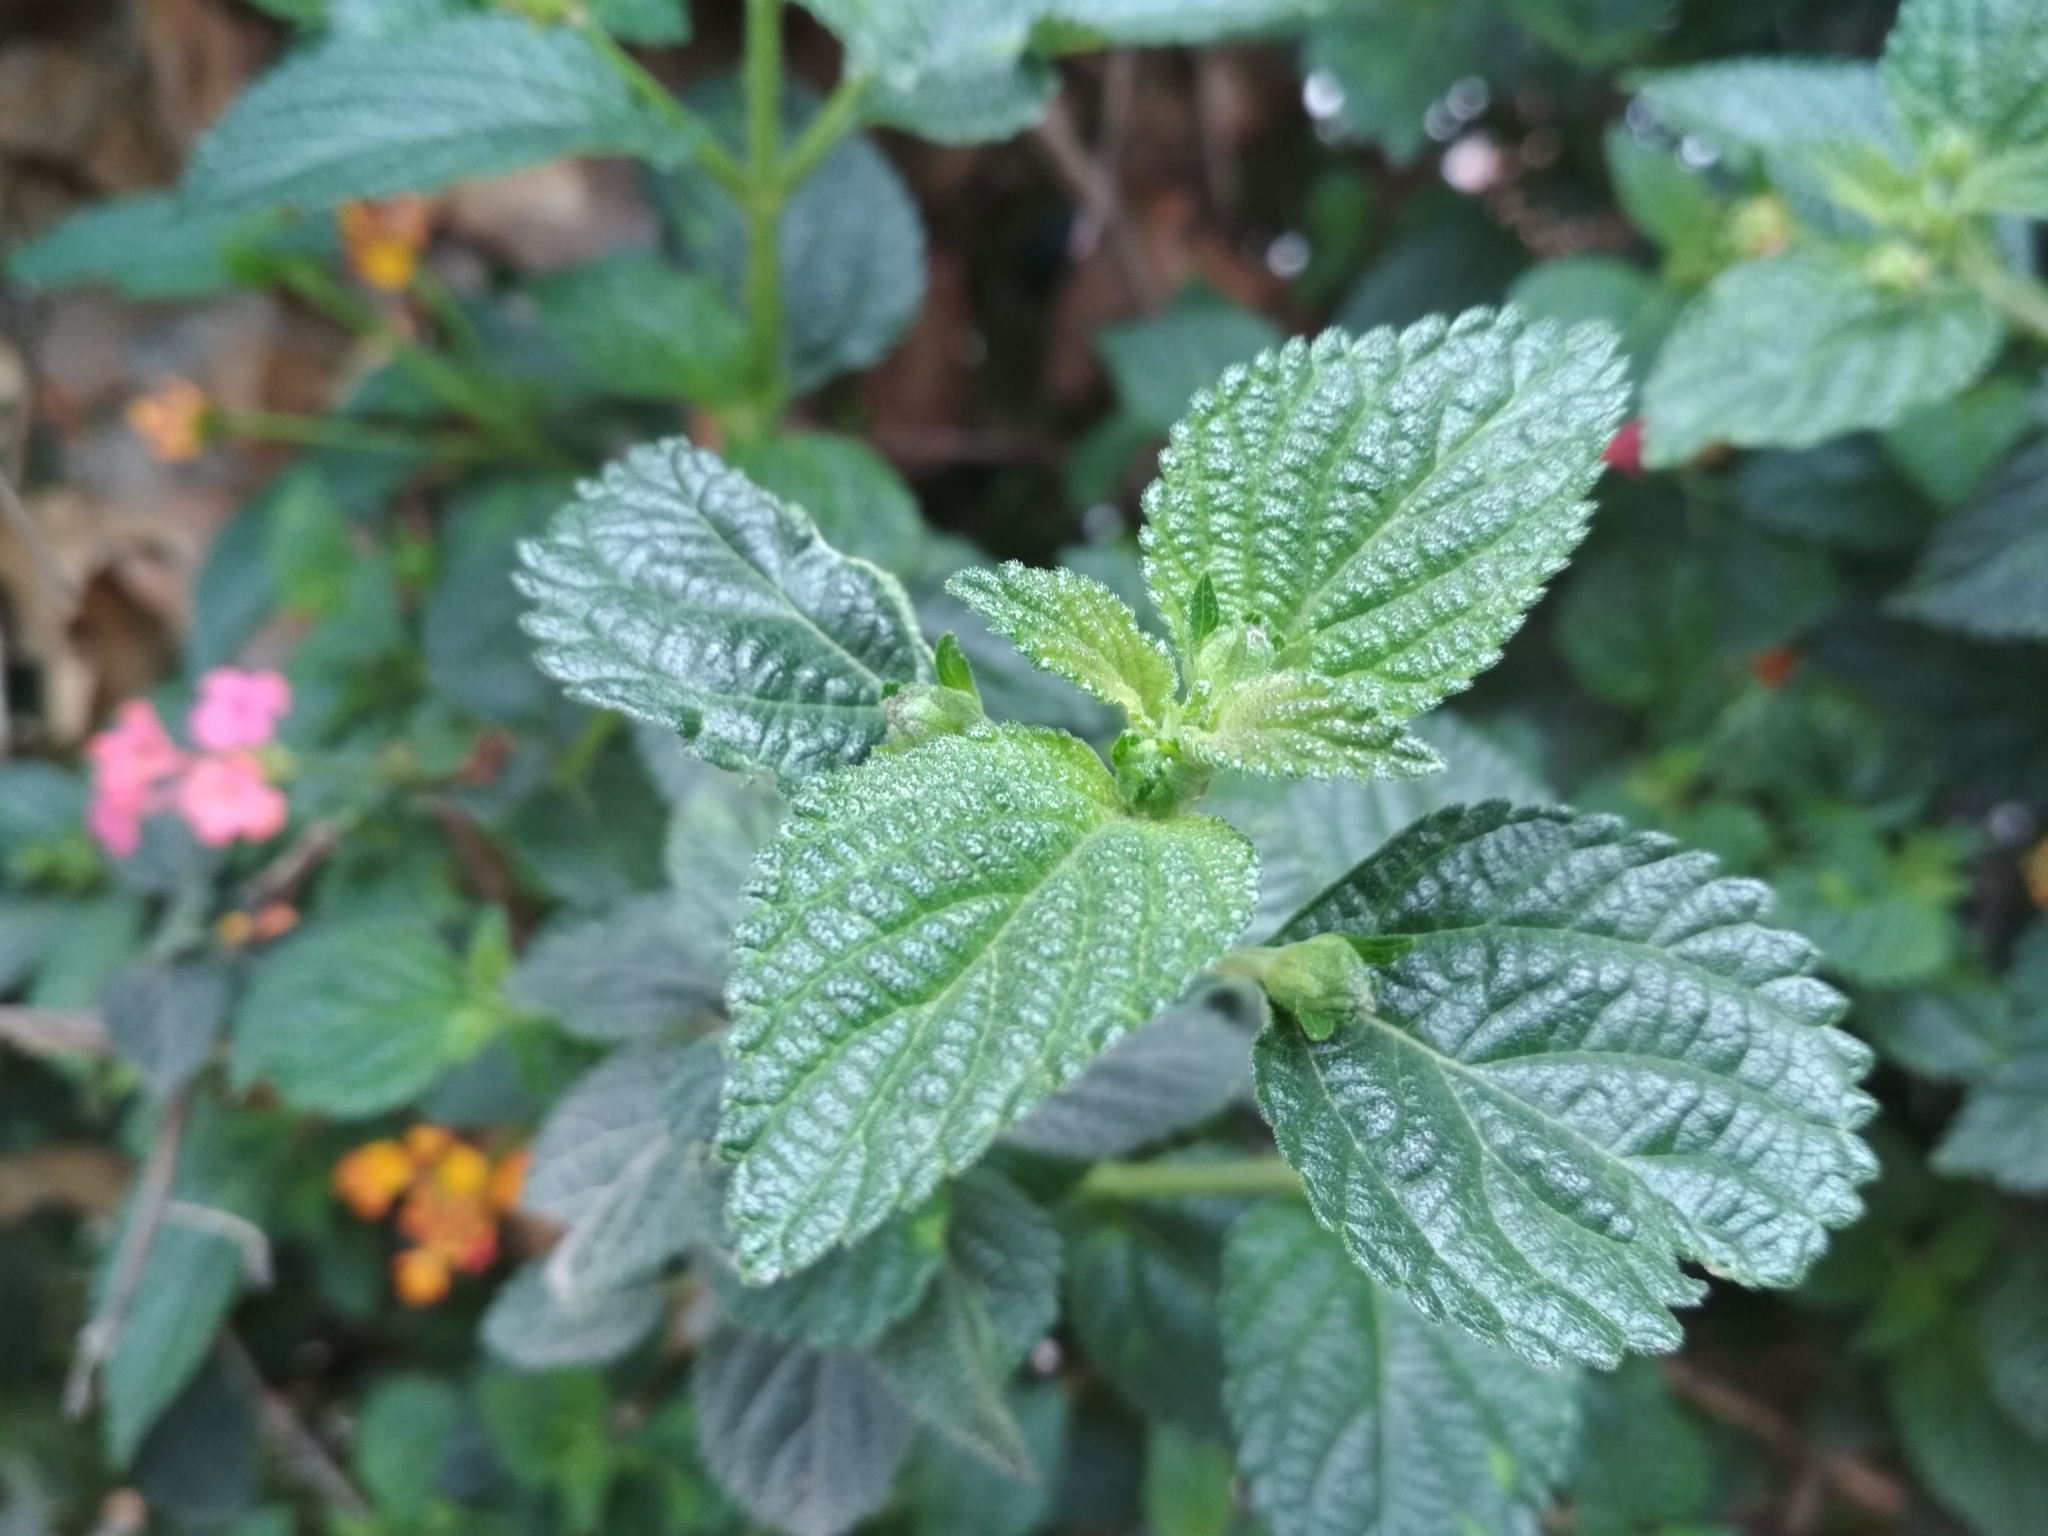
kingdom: Plantae
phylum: Tracheophyta
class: Magnoliopsida
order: Lamiales
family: Verbenaceae
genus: Lantana
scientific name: Lantana camara
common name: Lantana
